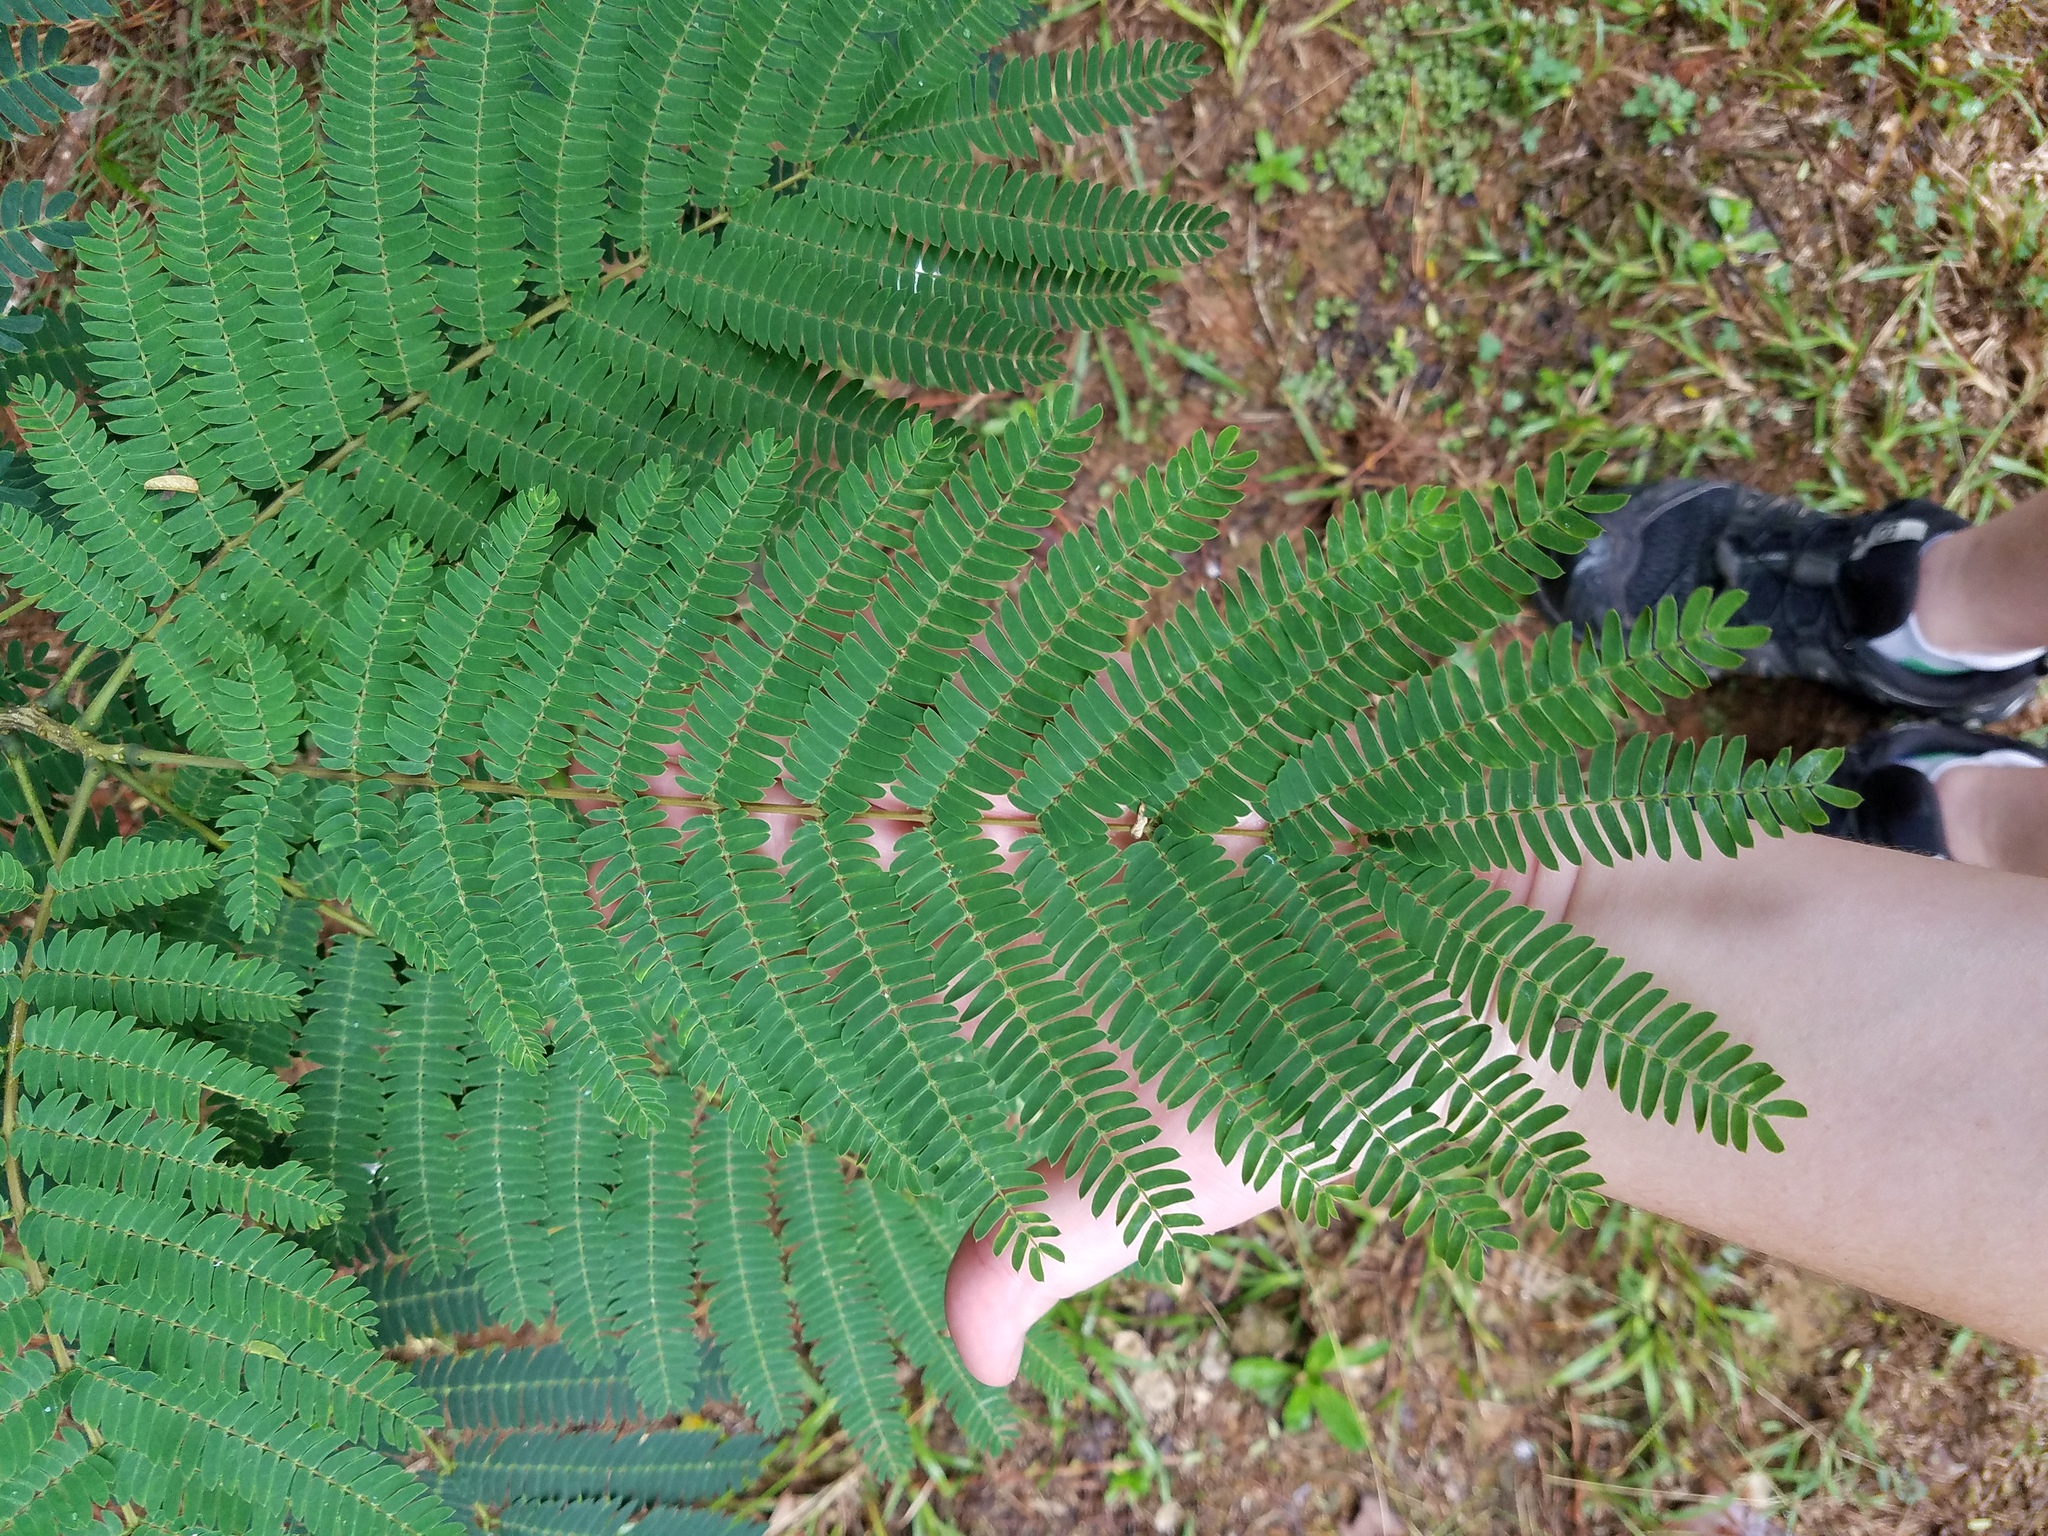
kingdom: Plantae
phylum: Tracheophyta
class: Magnoliopsida
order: Fabales
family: Fabaceae
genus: Albizia
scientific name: Albizia julibrissin
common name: Silktree
